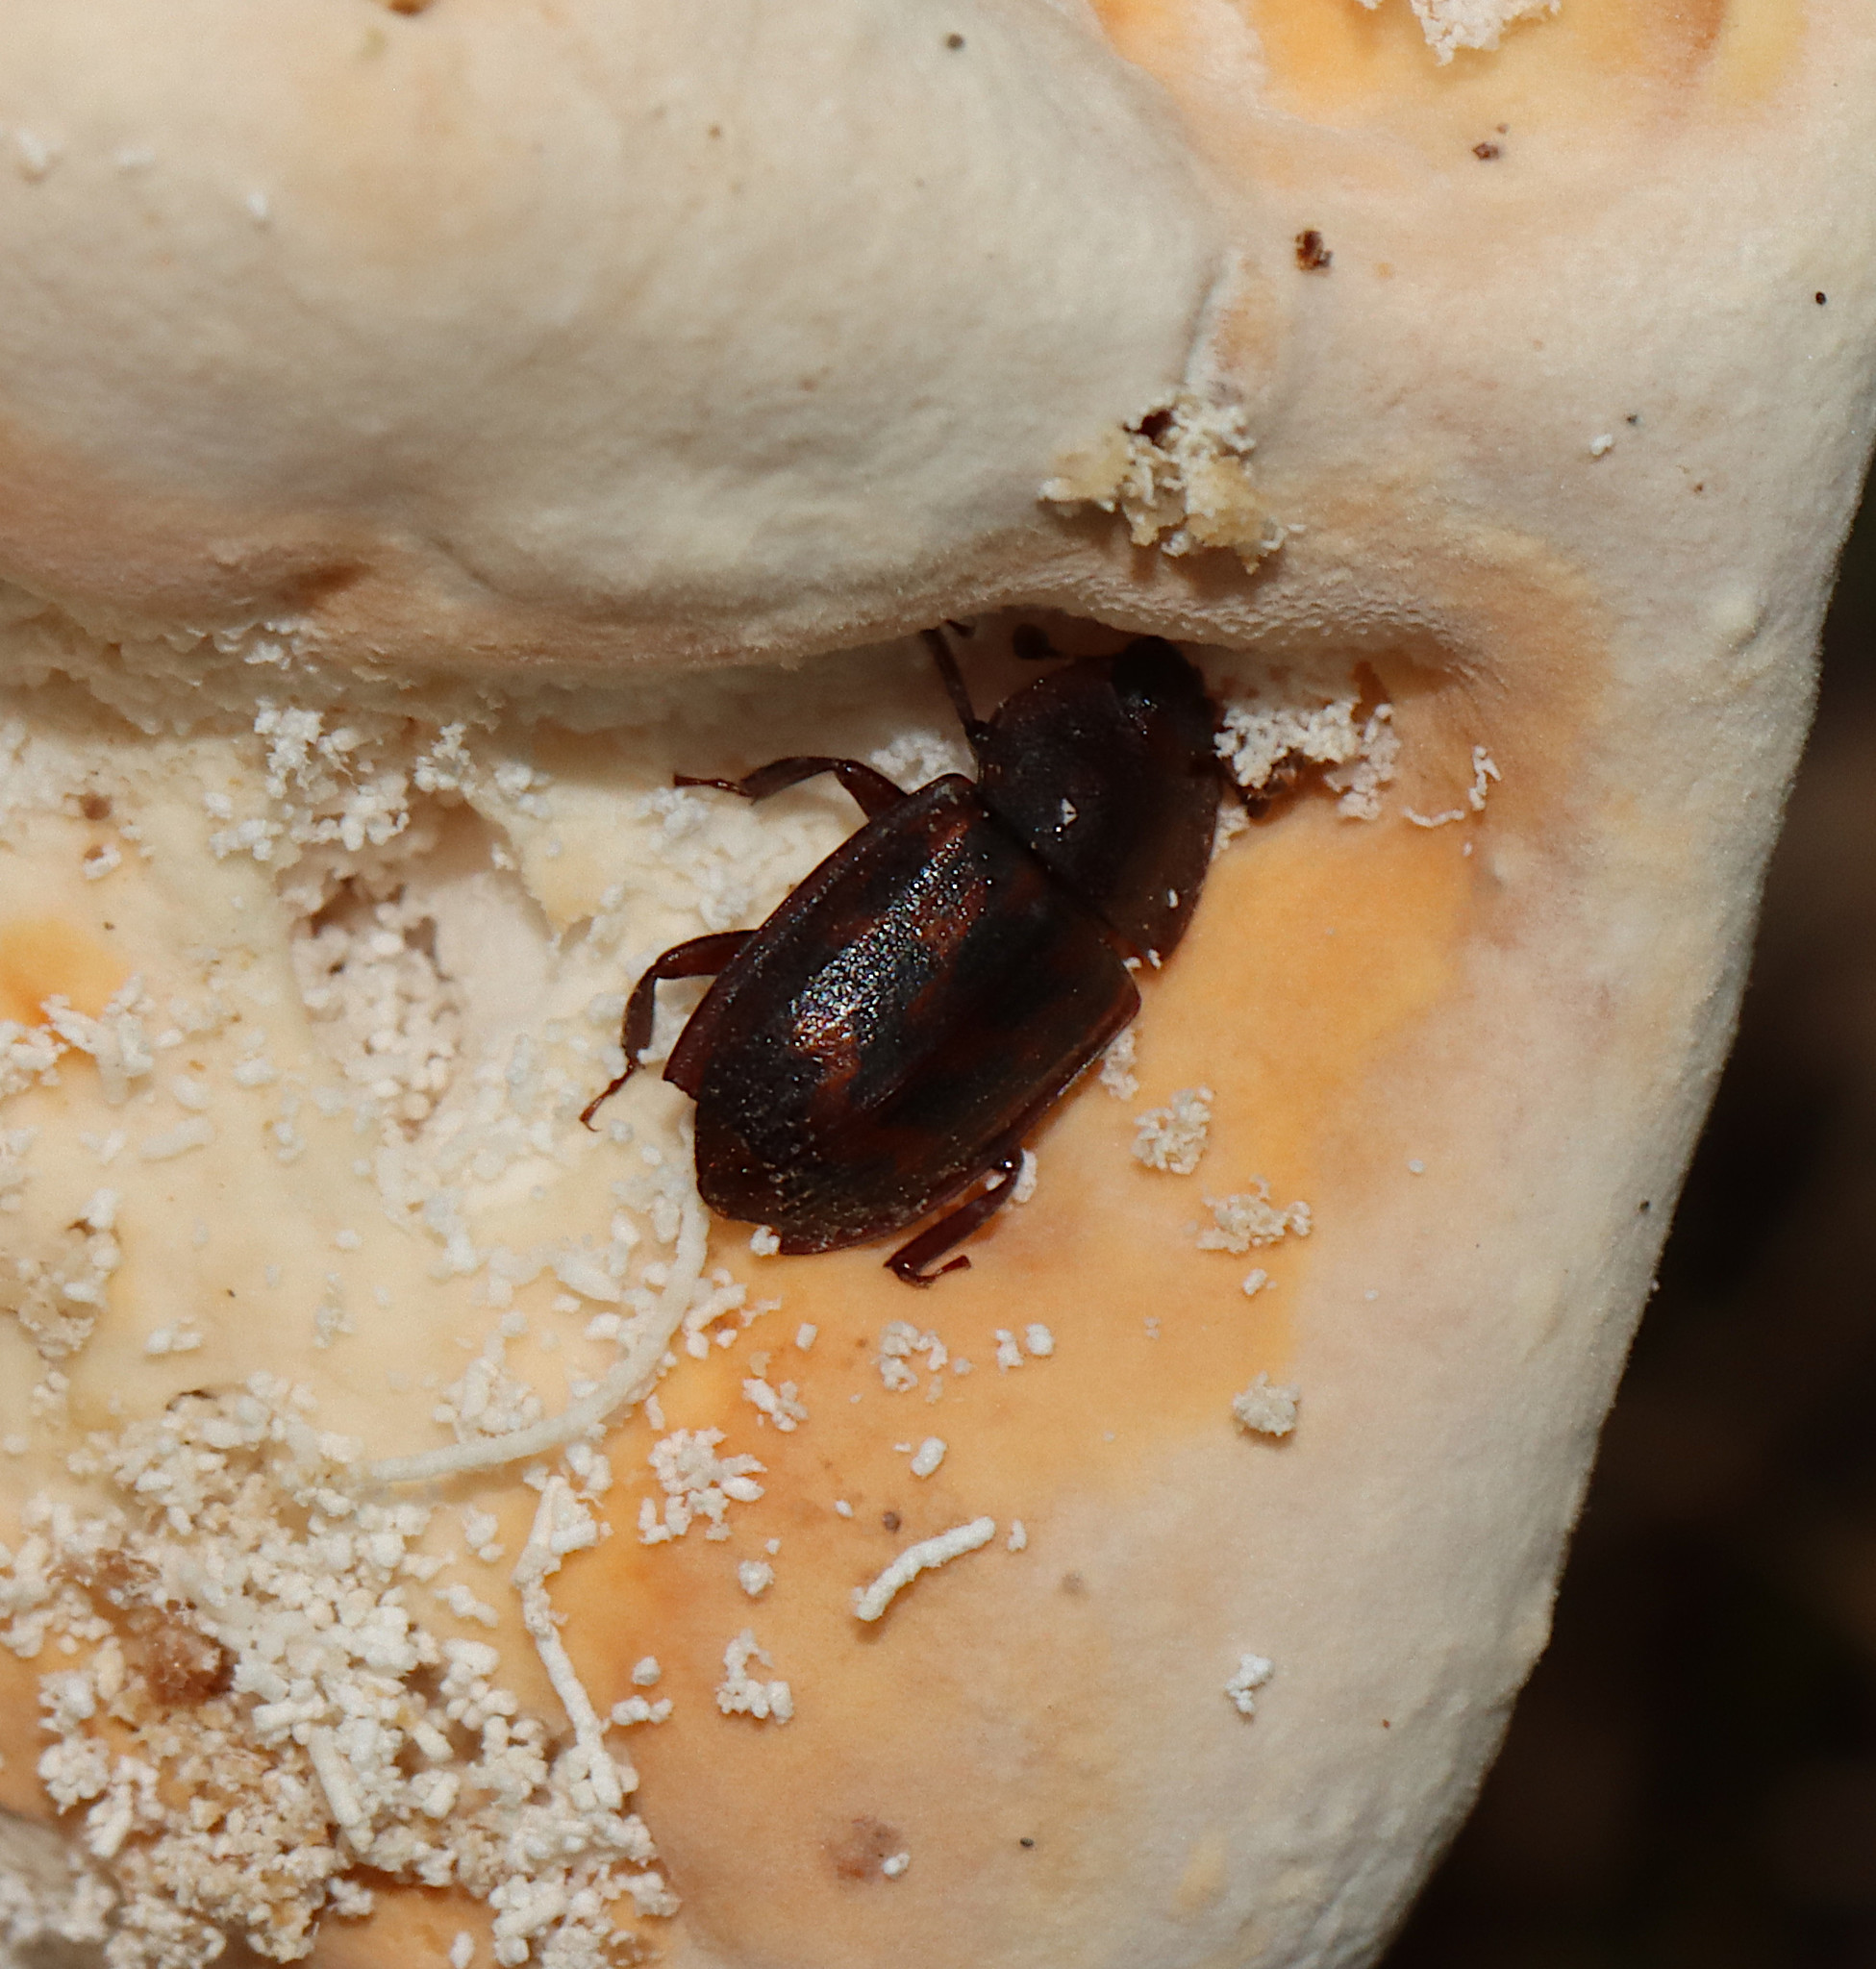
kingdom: Animalia
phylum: Arthropoda
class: Insecta
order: Coleoptera
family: Nitidulidae
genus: Phenolia
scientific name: Phenolia grossa
